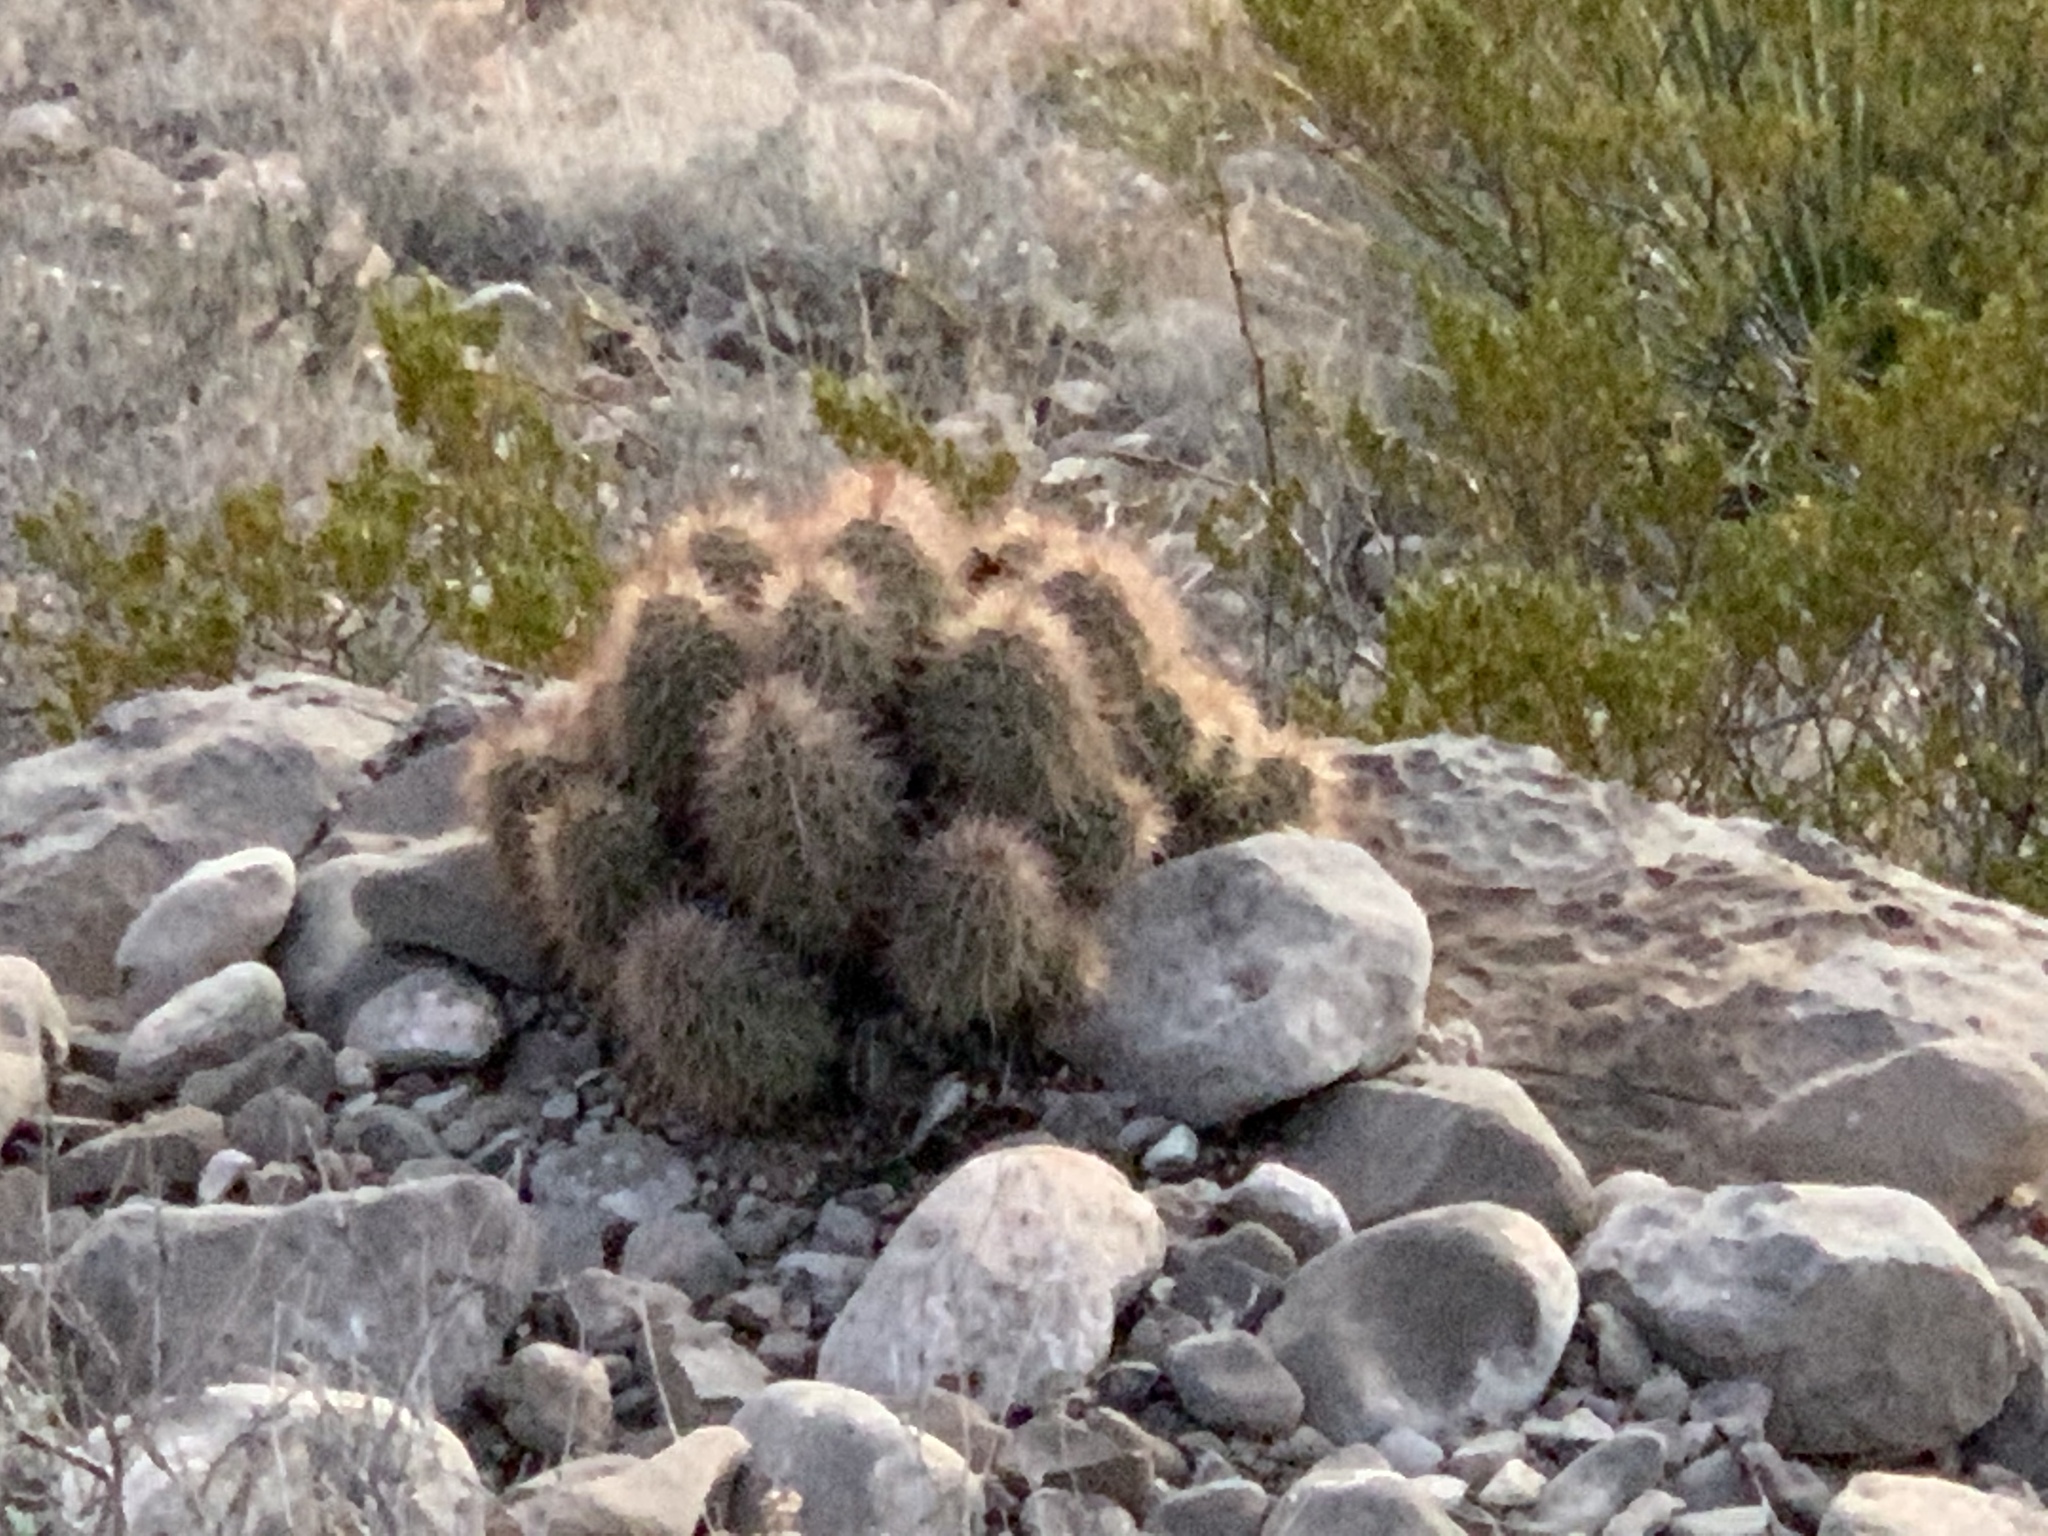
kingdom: Plantae
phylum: Tracheophyta
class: Magnoliopsida
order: Caryophyllales
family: Cactaceae
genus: Echinocereus
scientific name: Echinocereus coccineus
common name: Scarlet hedgehog cactus
